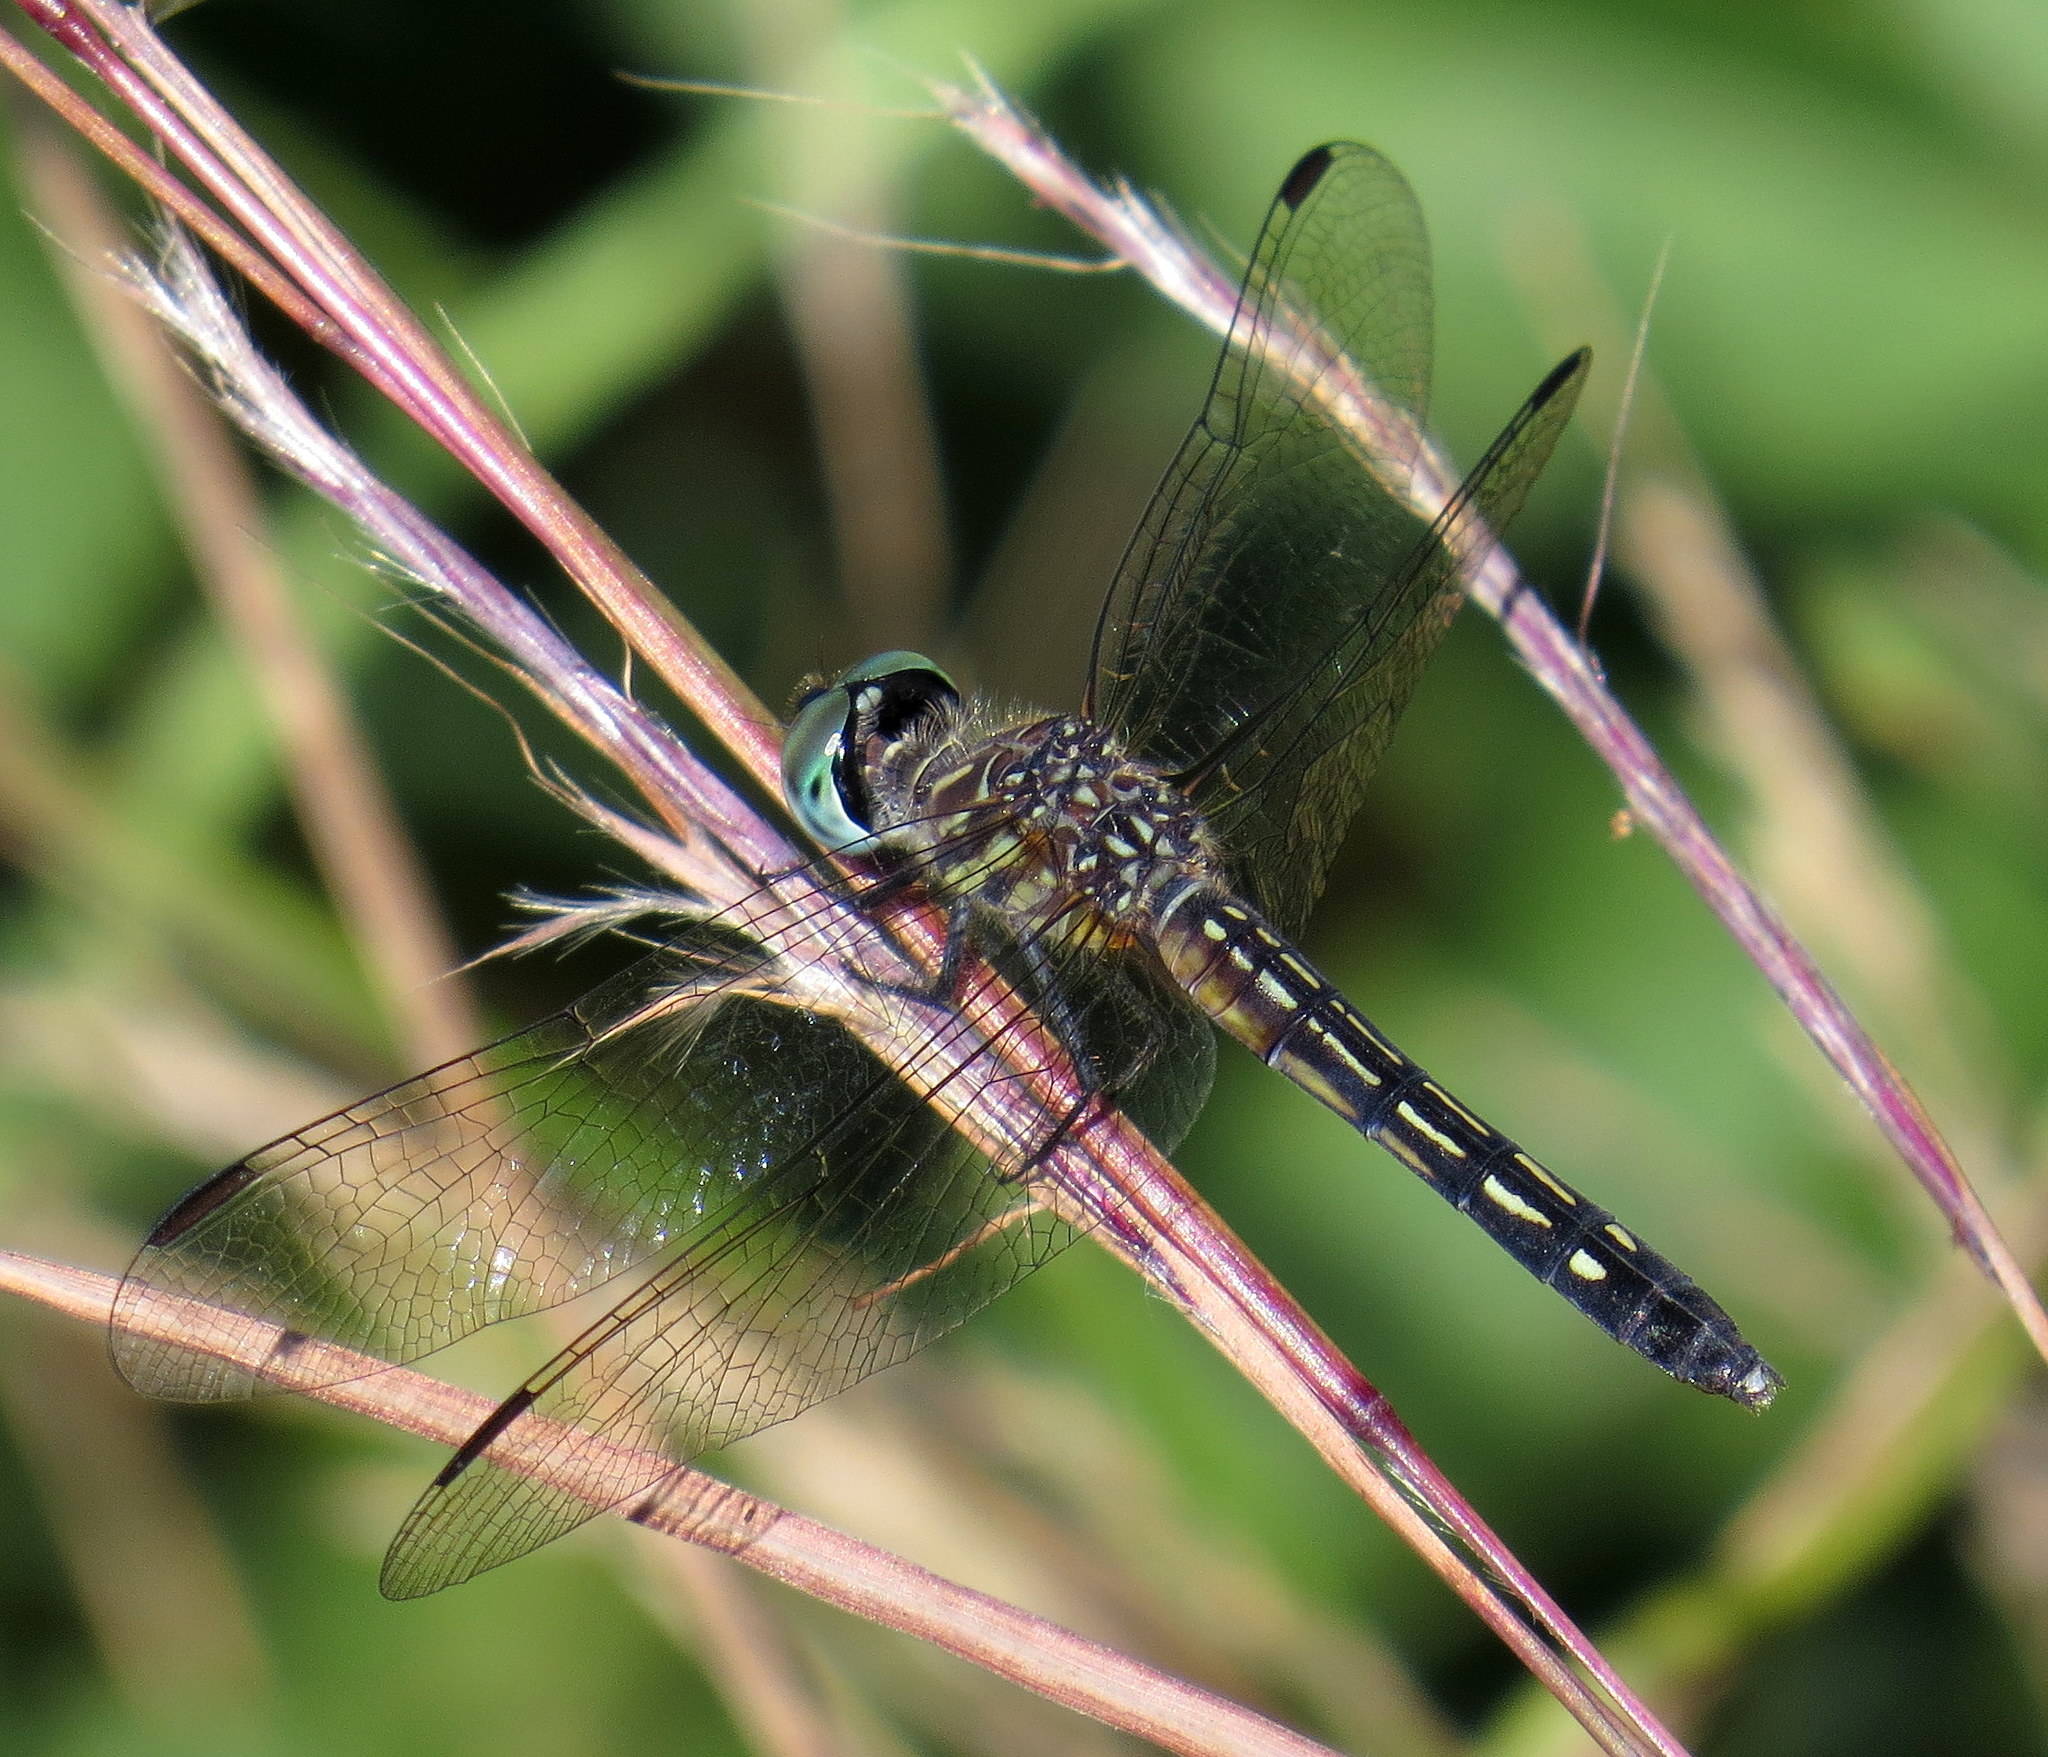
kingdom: Animalia
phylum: Arthropoda
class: Insecta
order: Odonata
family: Libellulidae
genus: Pachydiplax
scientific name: Pachydiplax longipennis
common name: Blue dasher
